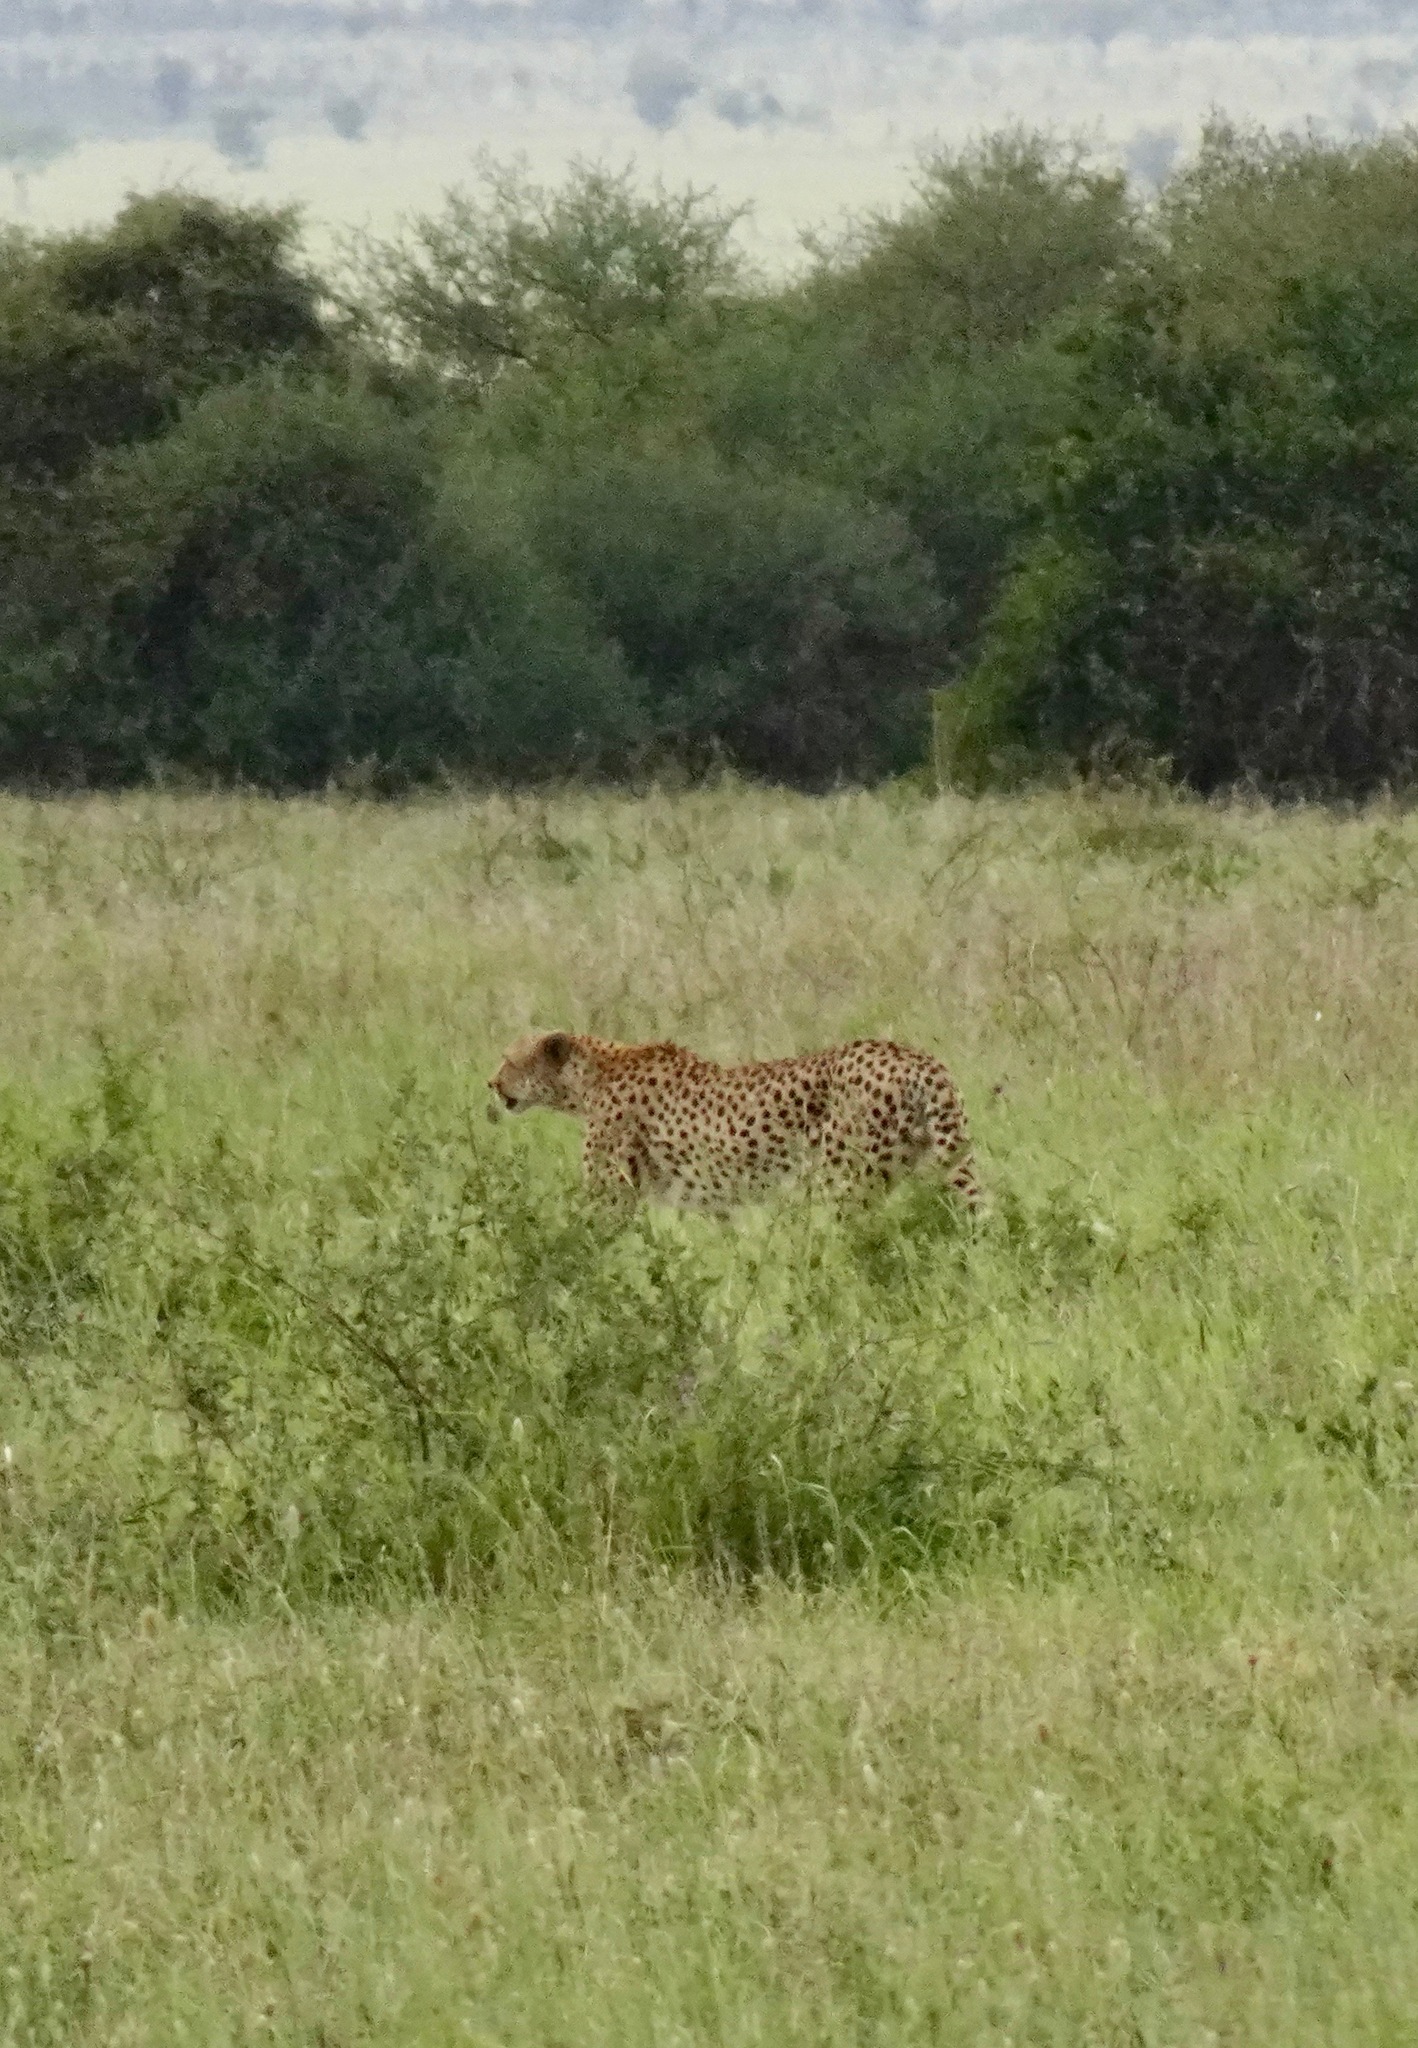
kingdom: Animalia
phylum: Chordata
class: Mammalia
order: Carnivora
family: Felidae
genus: Acinonyx
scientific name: Acinonyx jubatus
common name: Cheetah
